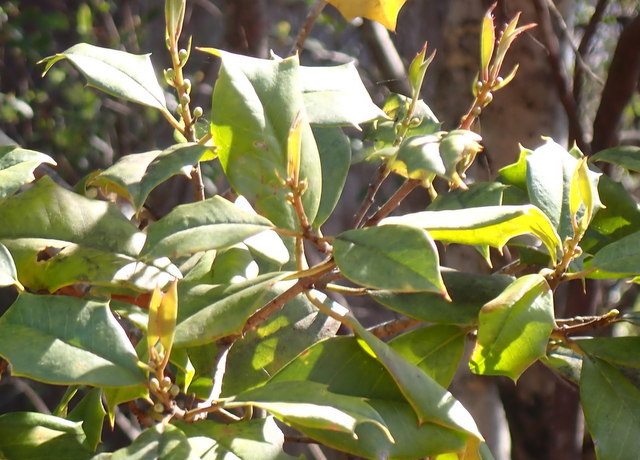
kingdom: Plantae
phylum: Tracheophyta
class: Magnoliopsida
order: Aquifoliales
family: Aquifoliaceae
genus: Ilex
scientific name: Ilex opaca
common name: American holly
